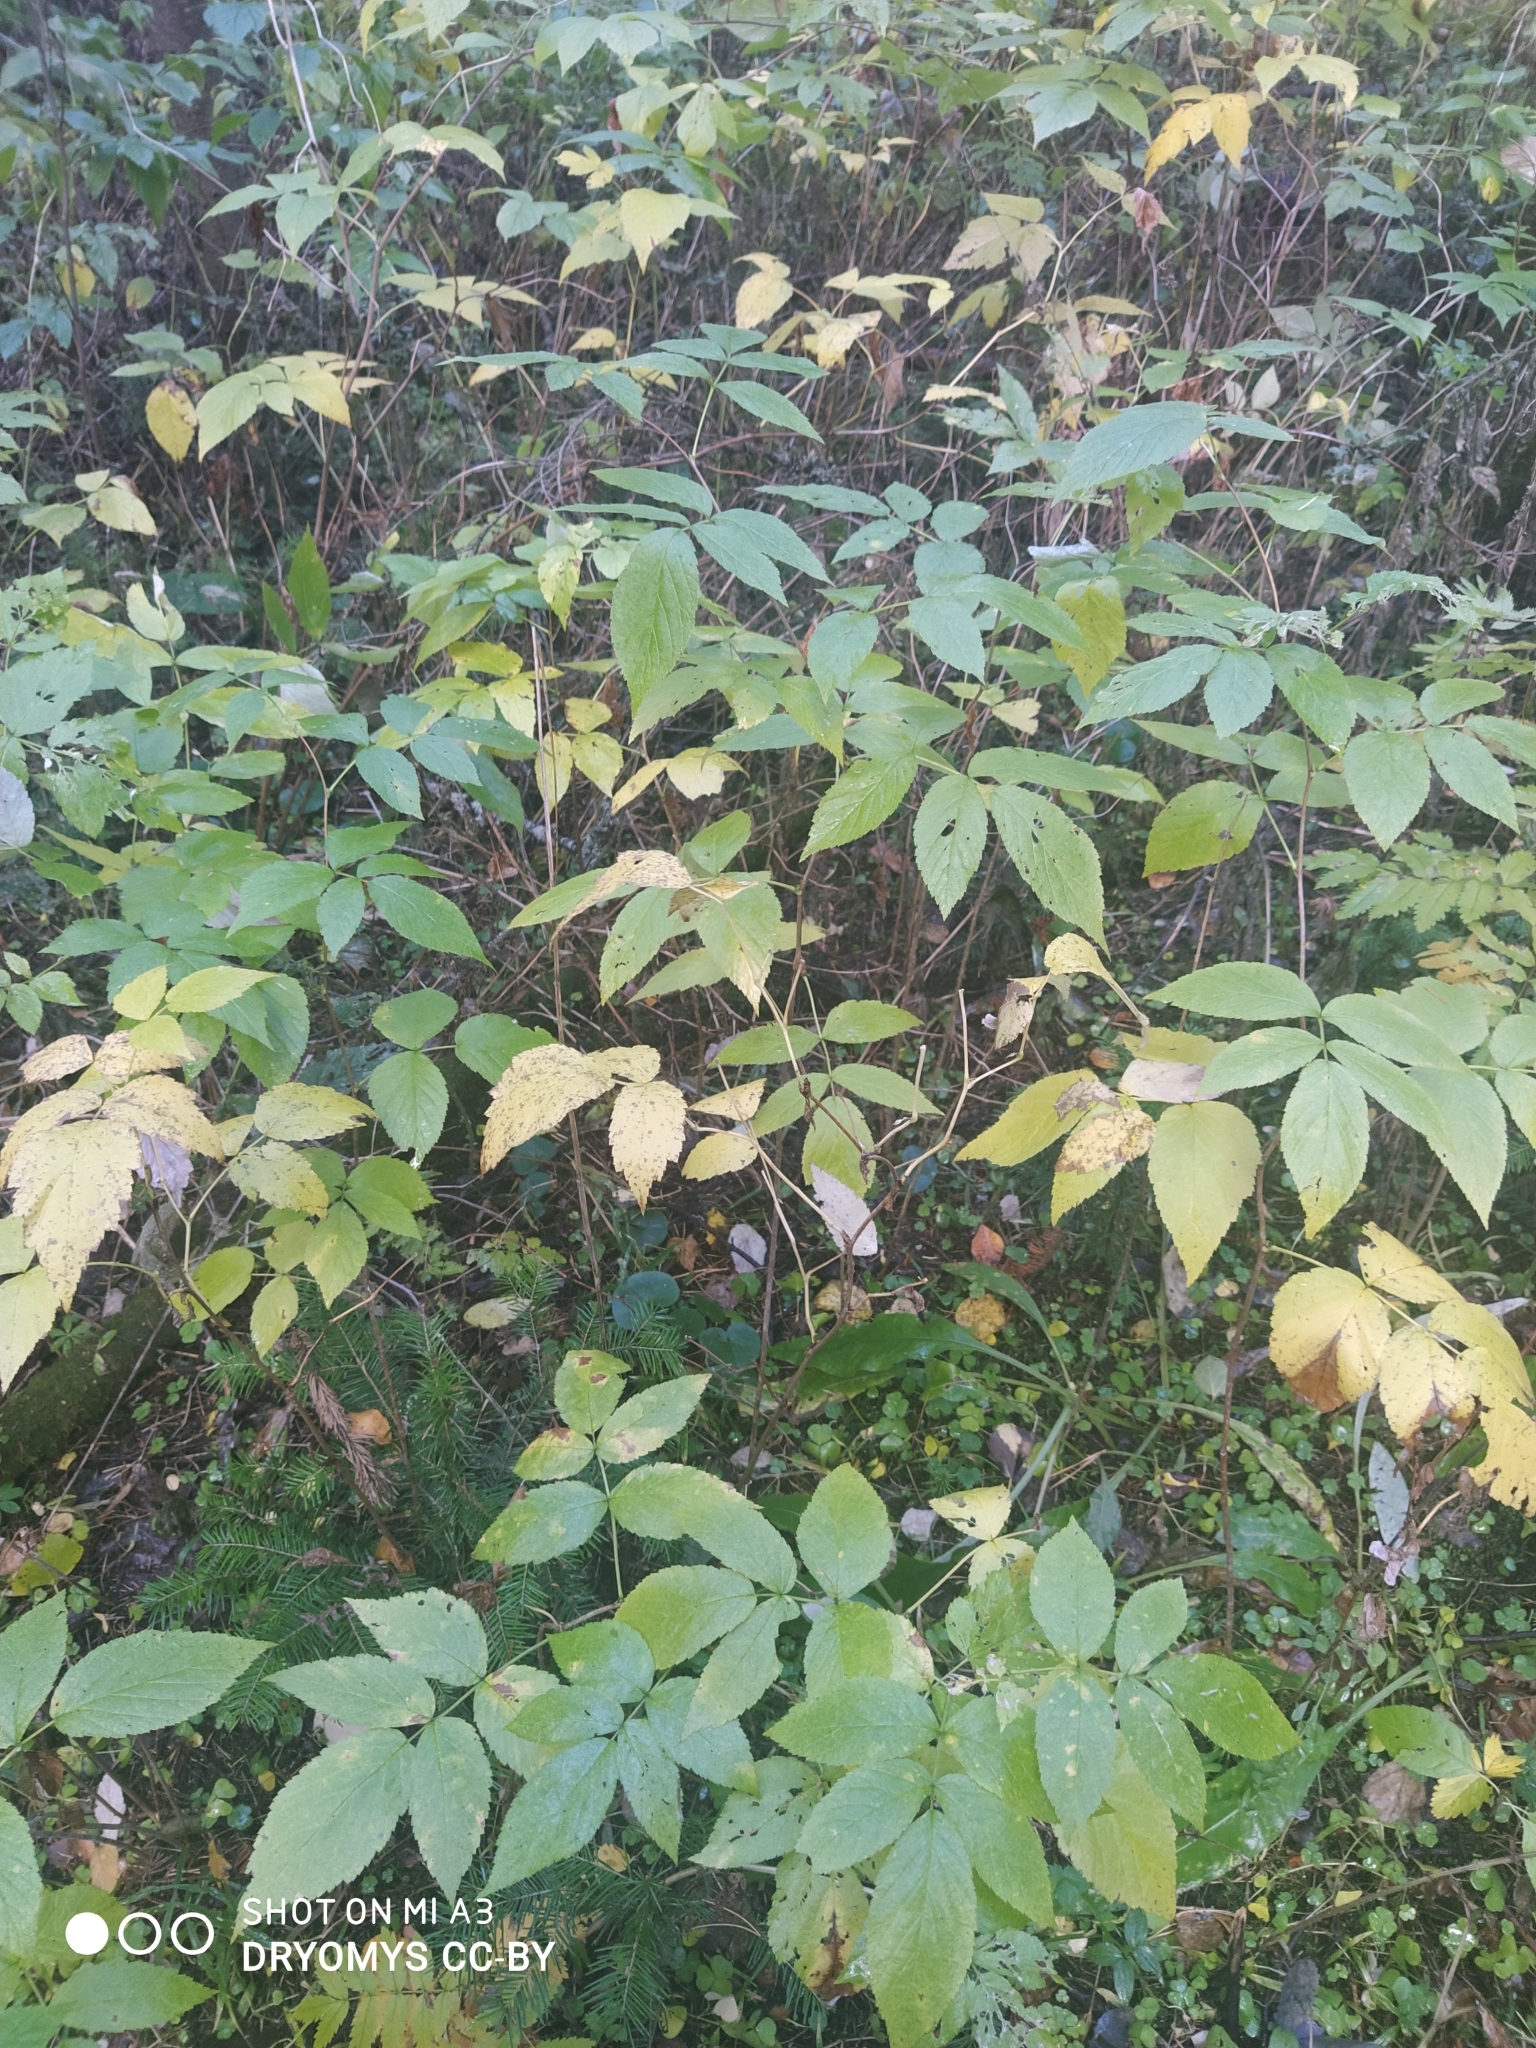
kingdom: Plantae
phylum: Tracheophyta
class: Magnoliopsida
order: Rosales
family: Rosaceae
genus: Rubus
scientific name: Rubus idaeus
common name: Raspberry
